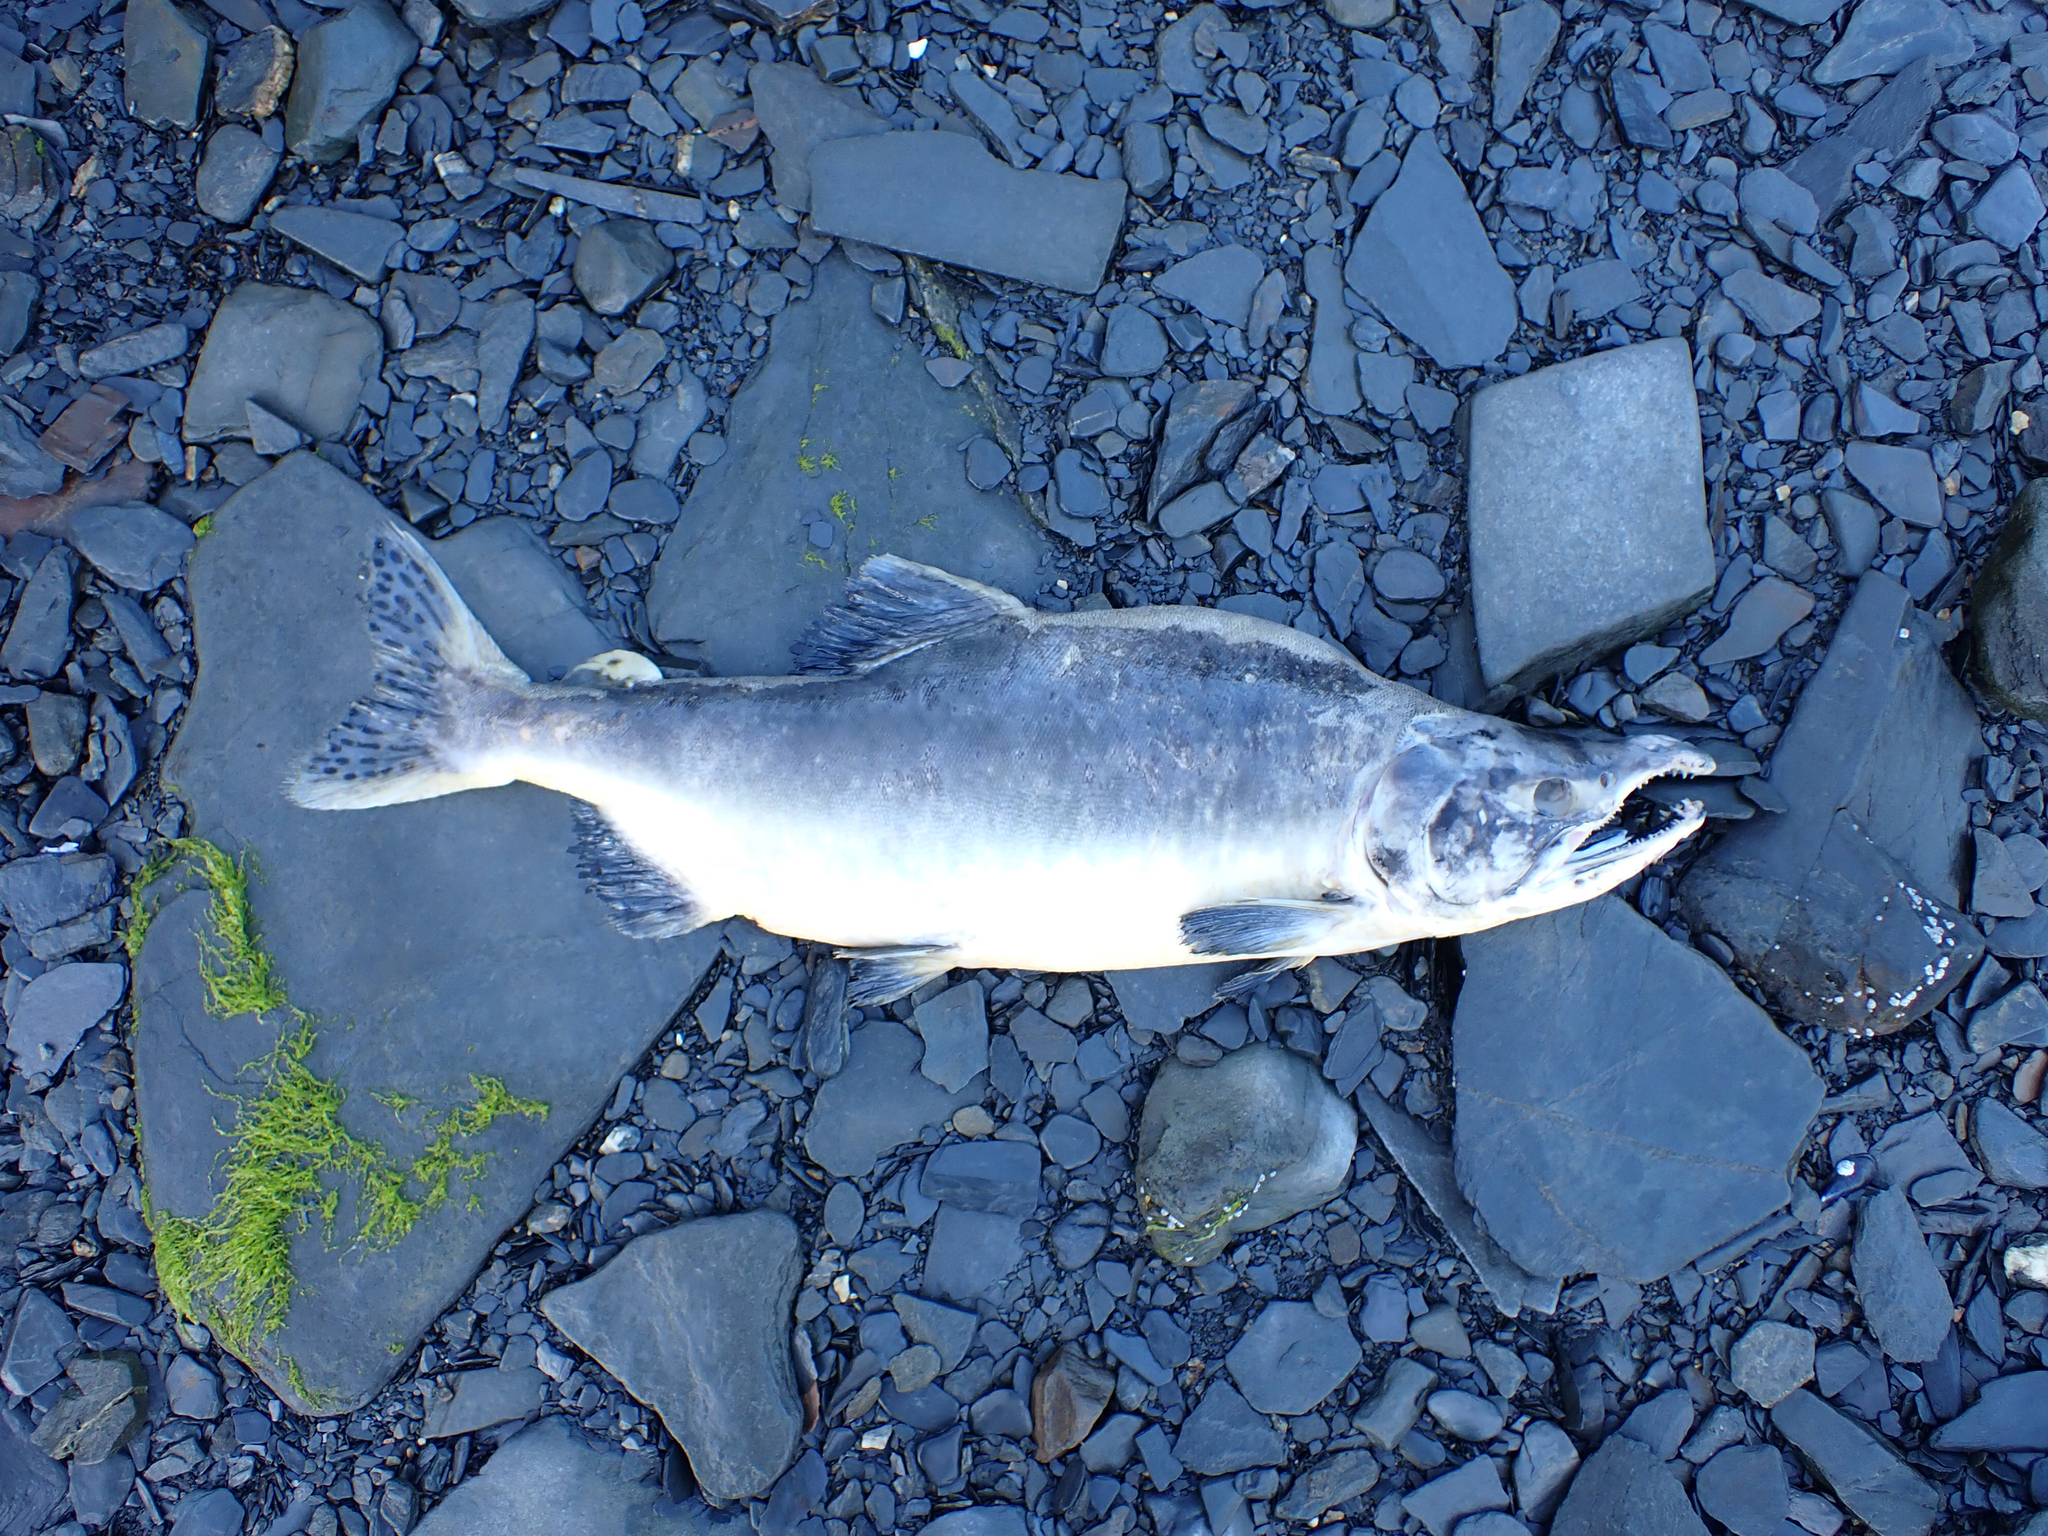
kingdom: Animalia
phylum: Chordata
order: Salmoniformes
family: Salmonidae
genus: Oncorhynchus
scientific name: Oncorhynchus gorbuscha
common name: Humpback salmon
